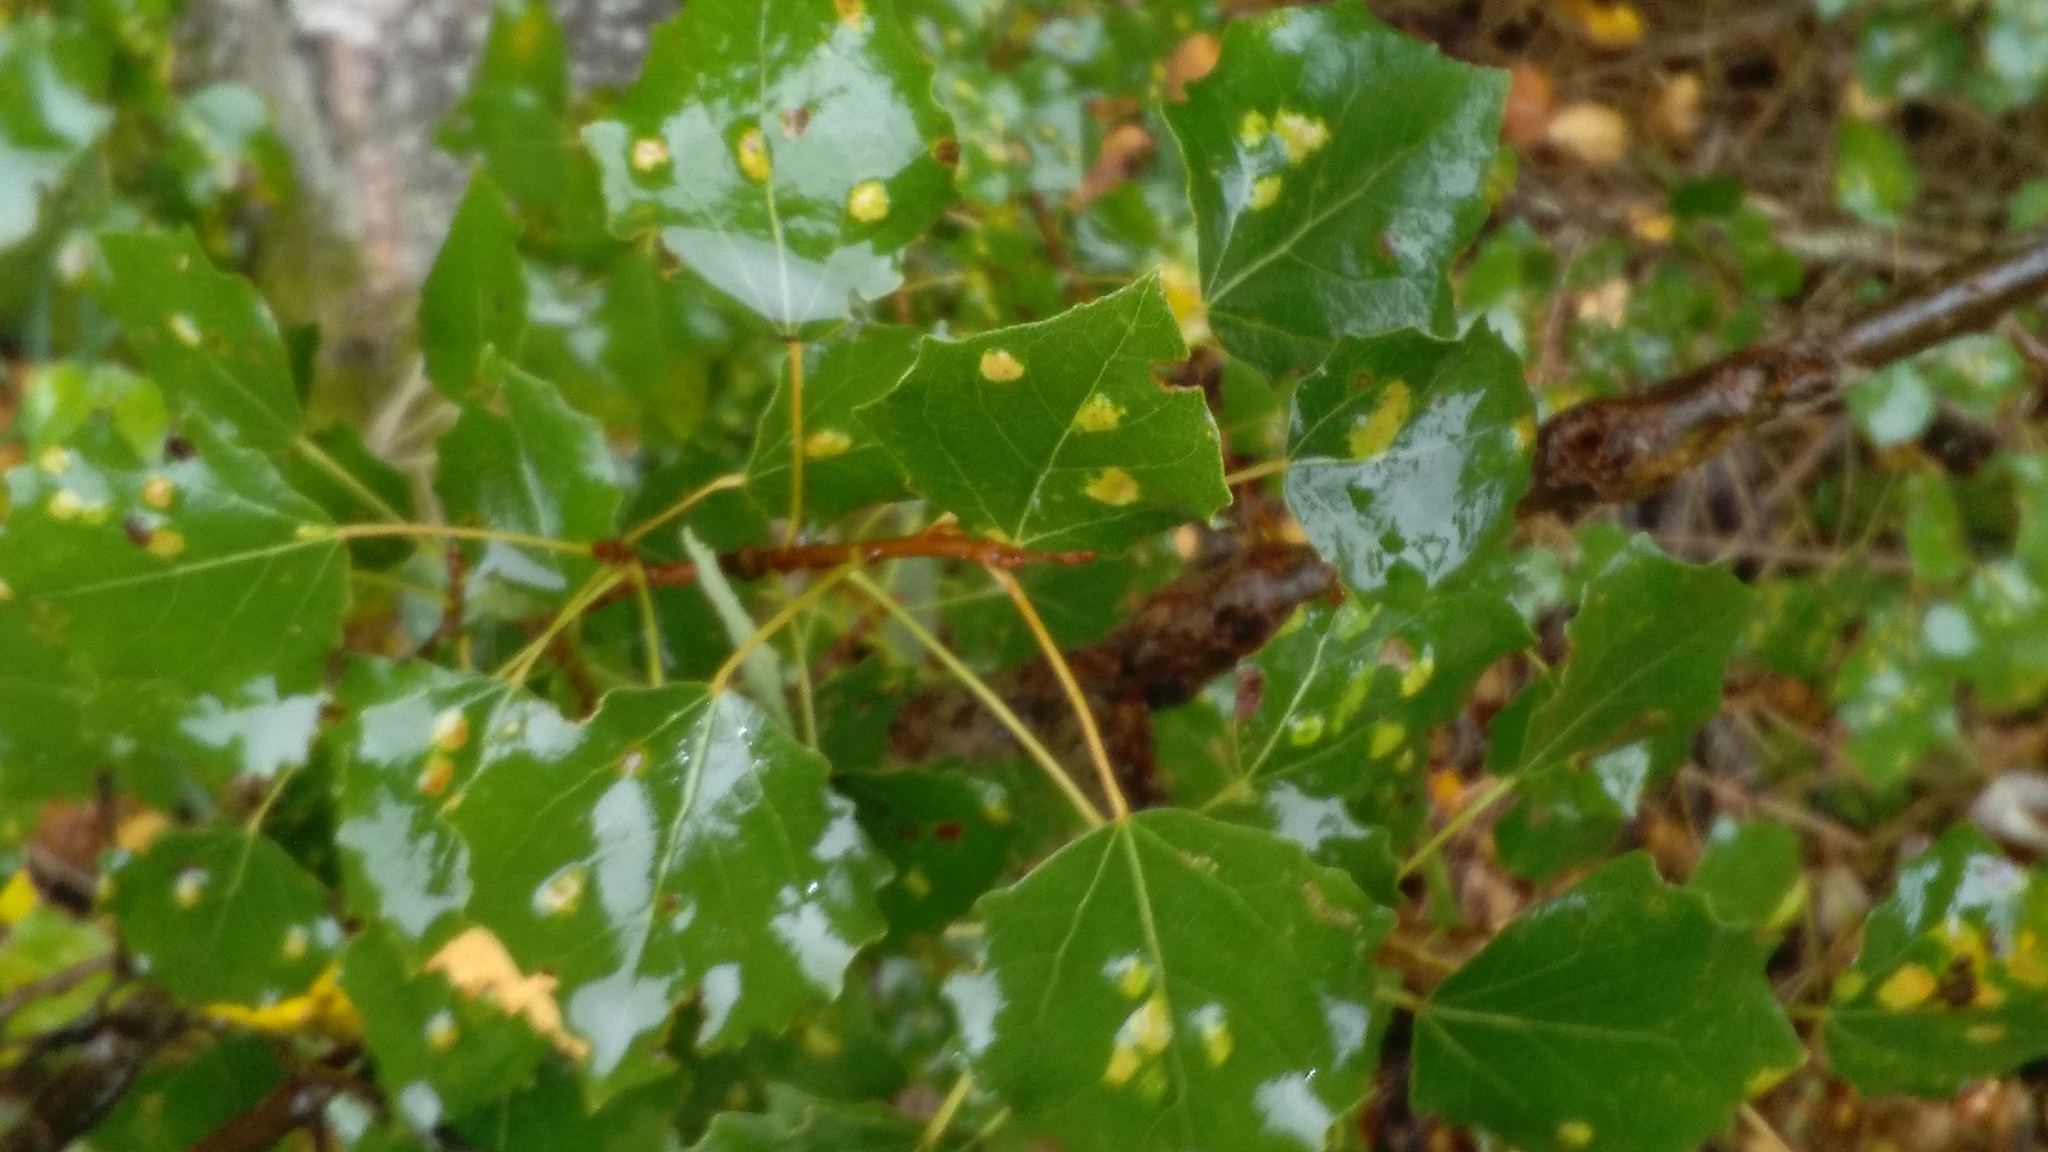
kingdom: Plantae
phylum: Tracheophyta
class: Magnoliopsida
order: Malpighiales
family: Salicaceae
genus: Populus
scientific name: Populus tremula
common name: European aspen
